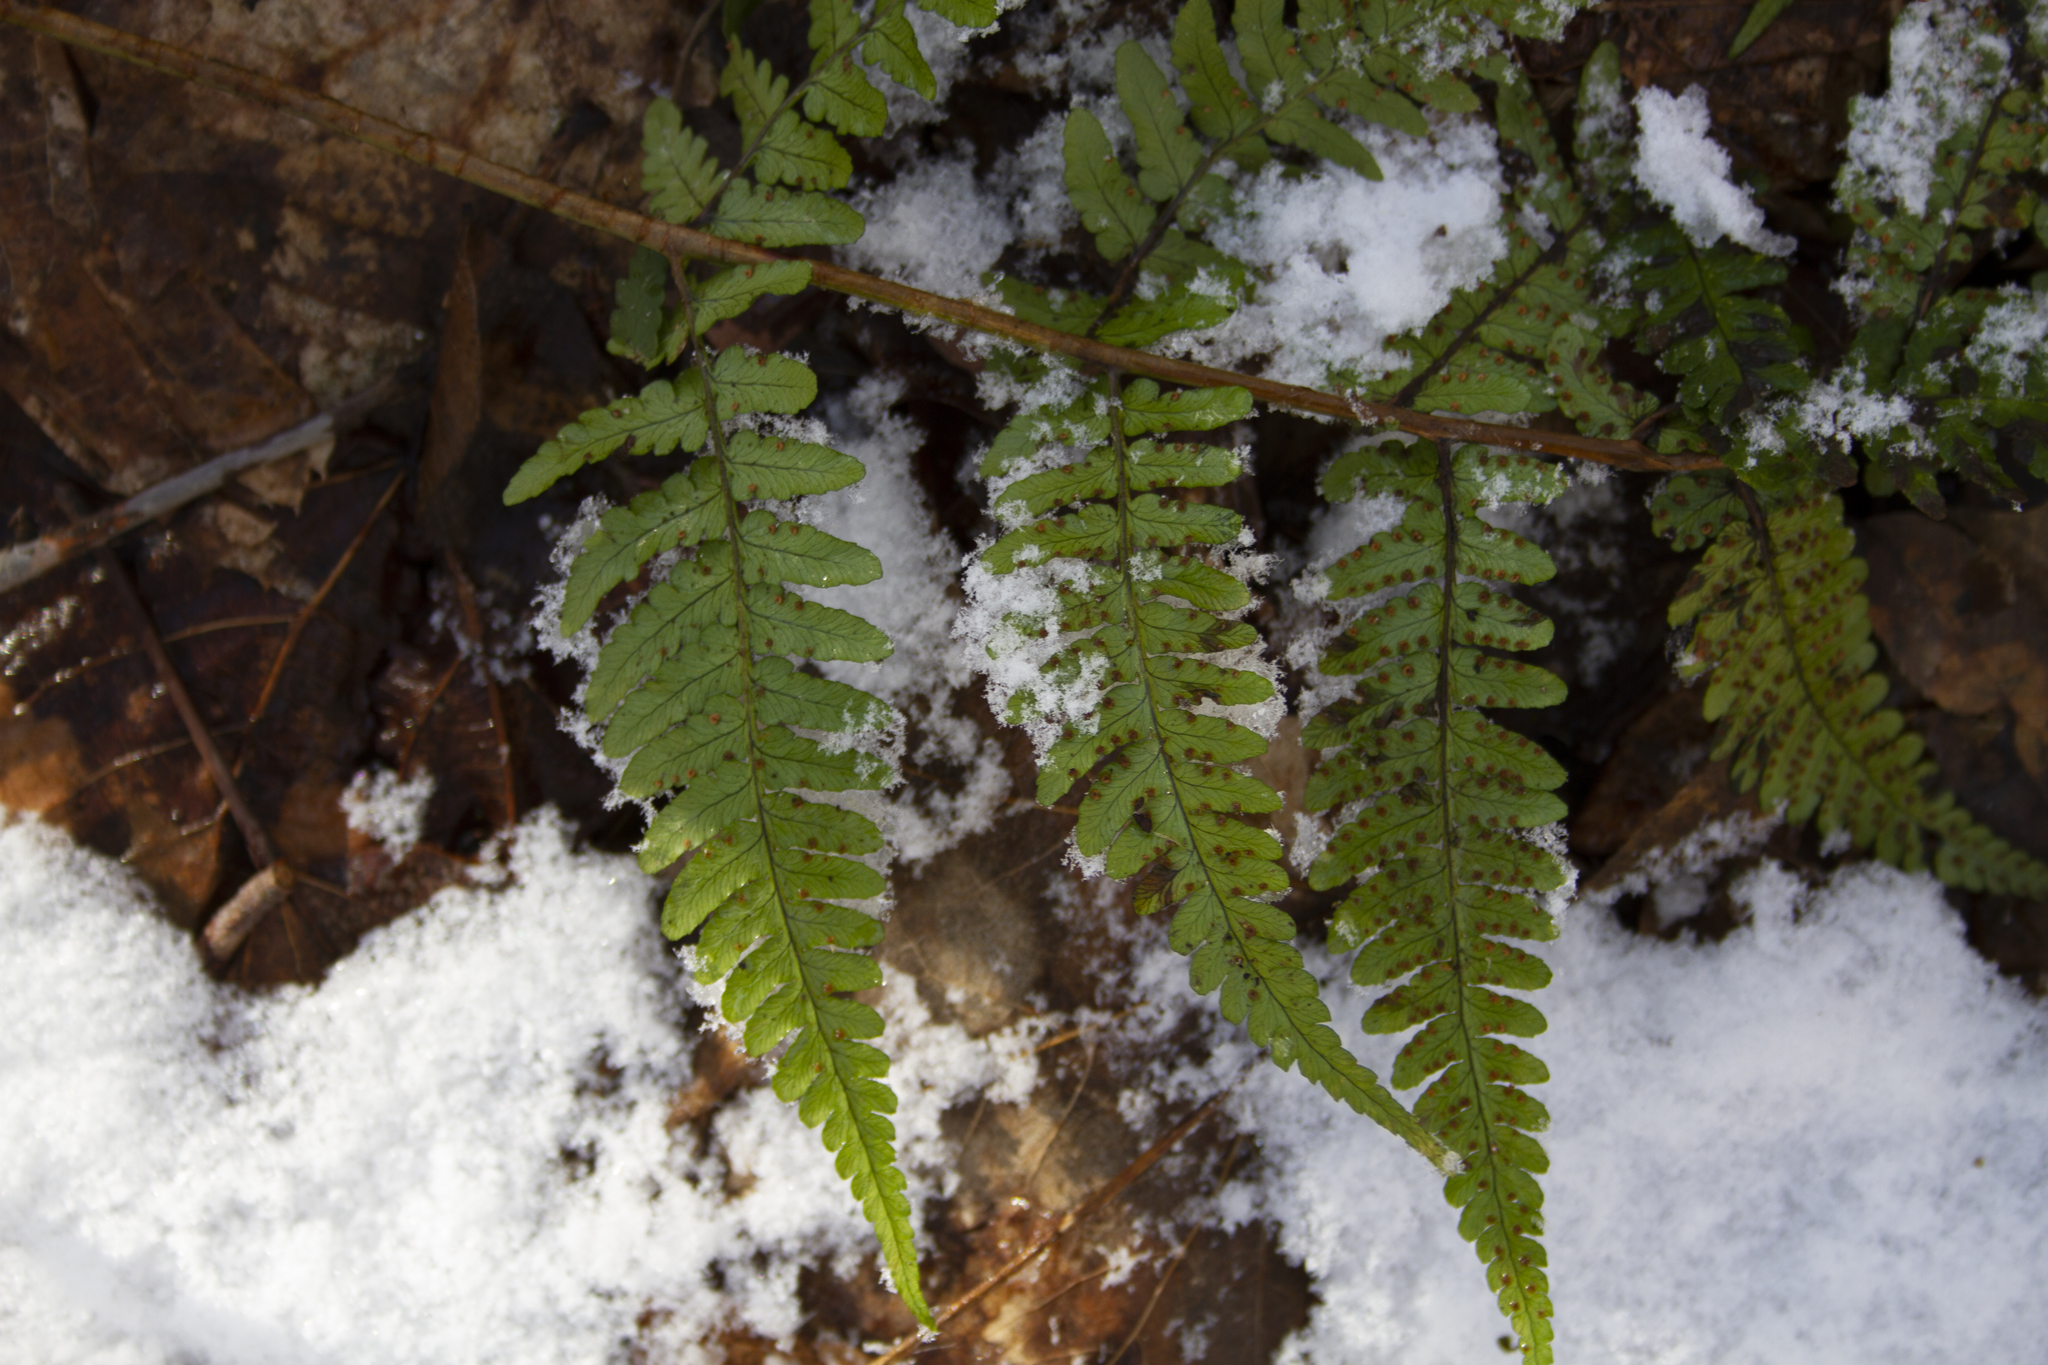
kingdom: Plantae
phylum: Tracheophyta
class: Polypodiopsida
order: Polypodiales
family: Dryopteridaceae
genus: Dryopteris
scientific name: Dryopteris marginalis
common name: Marginal wood fern
